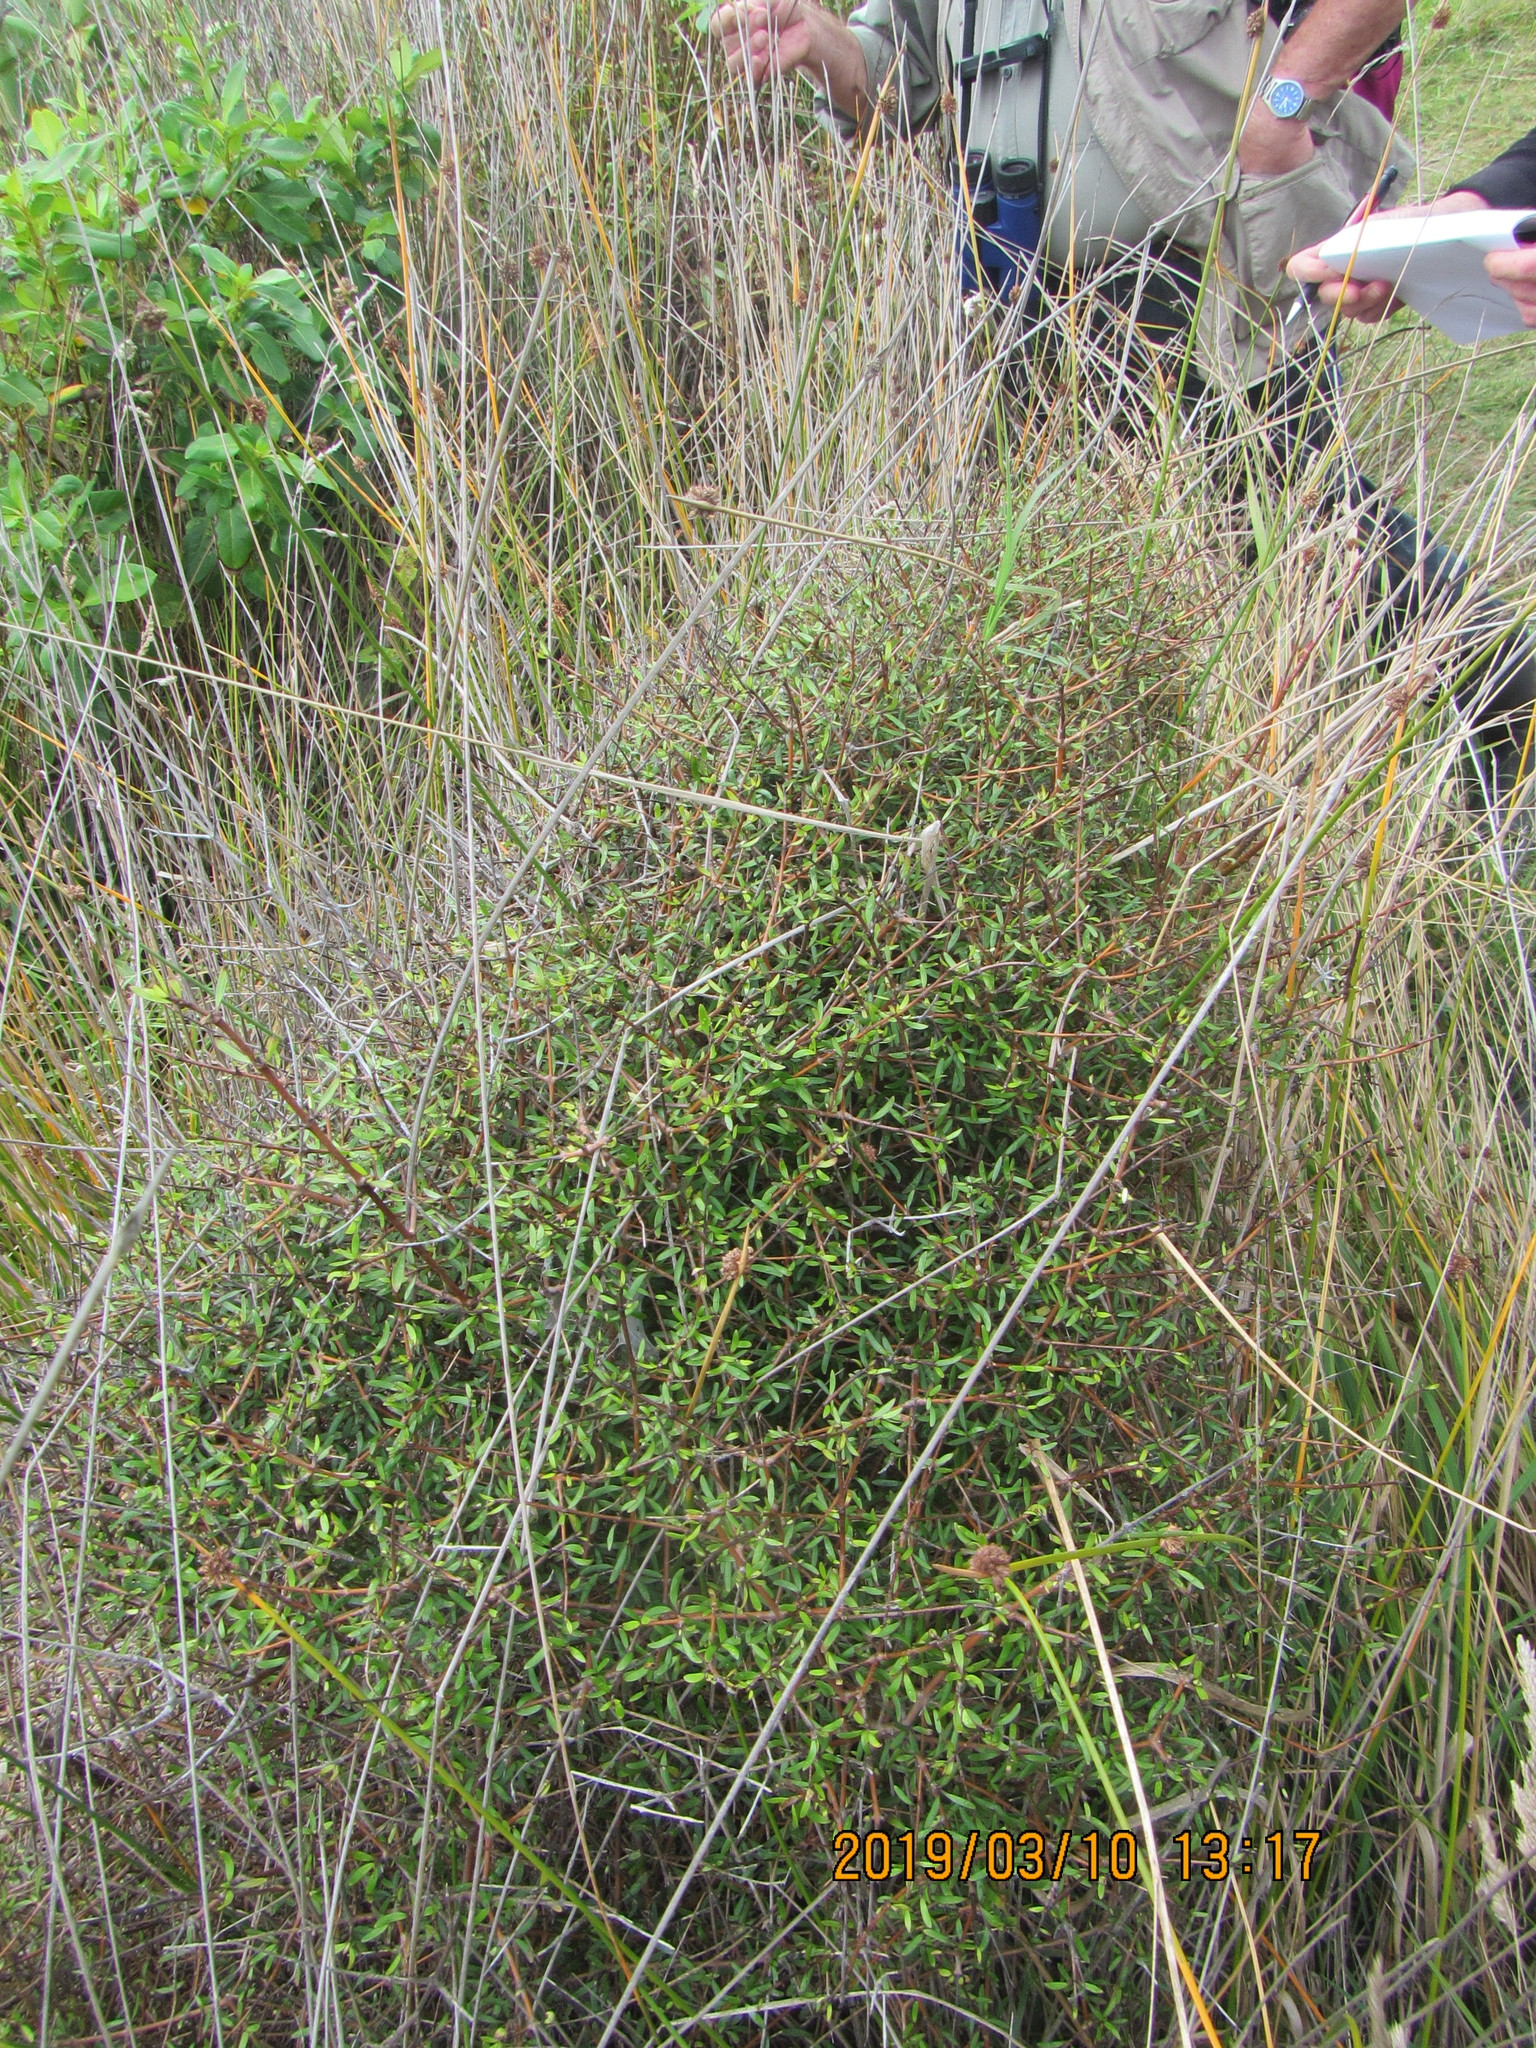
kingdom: Plantae
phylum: Tracheophyta
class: Magnoliopsida
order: Gentianales
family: Rubiaceae
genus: Coprosma
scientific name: Coprosma propinqua
